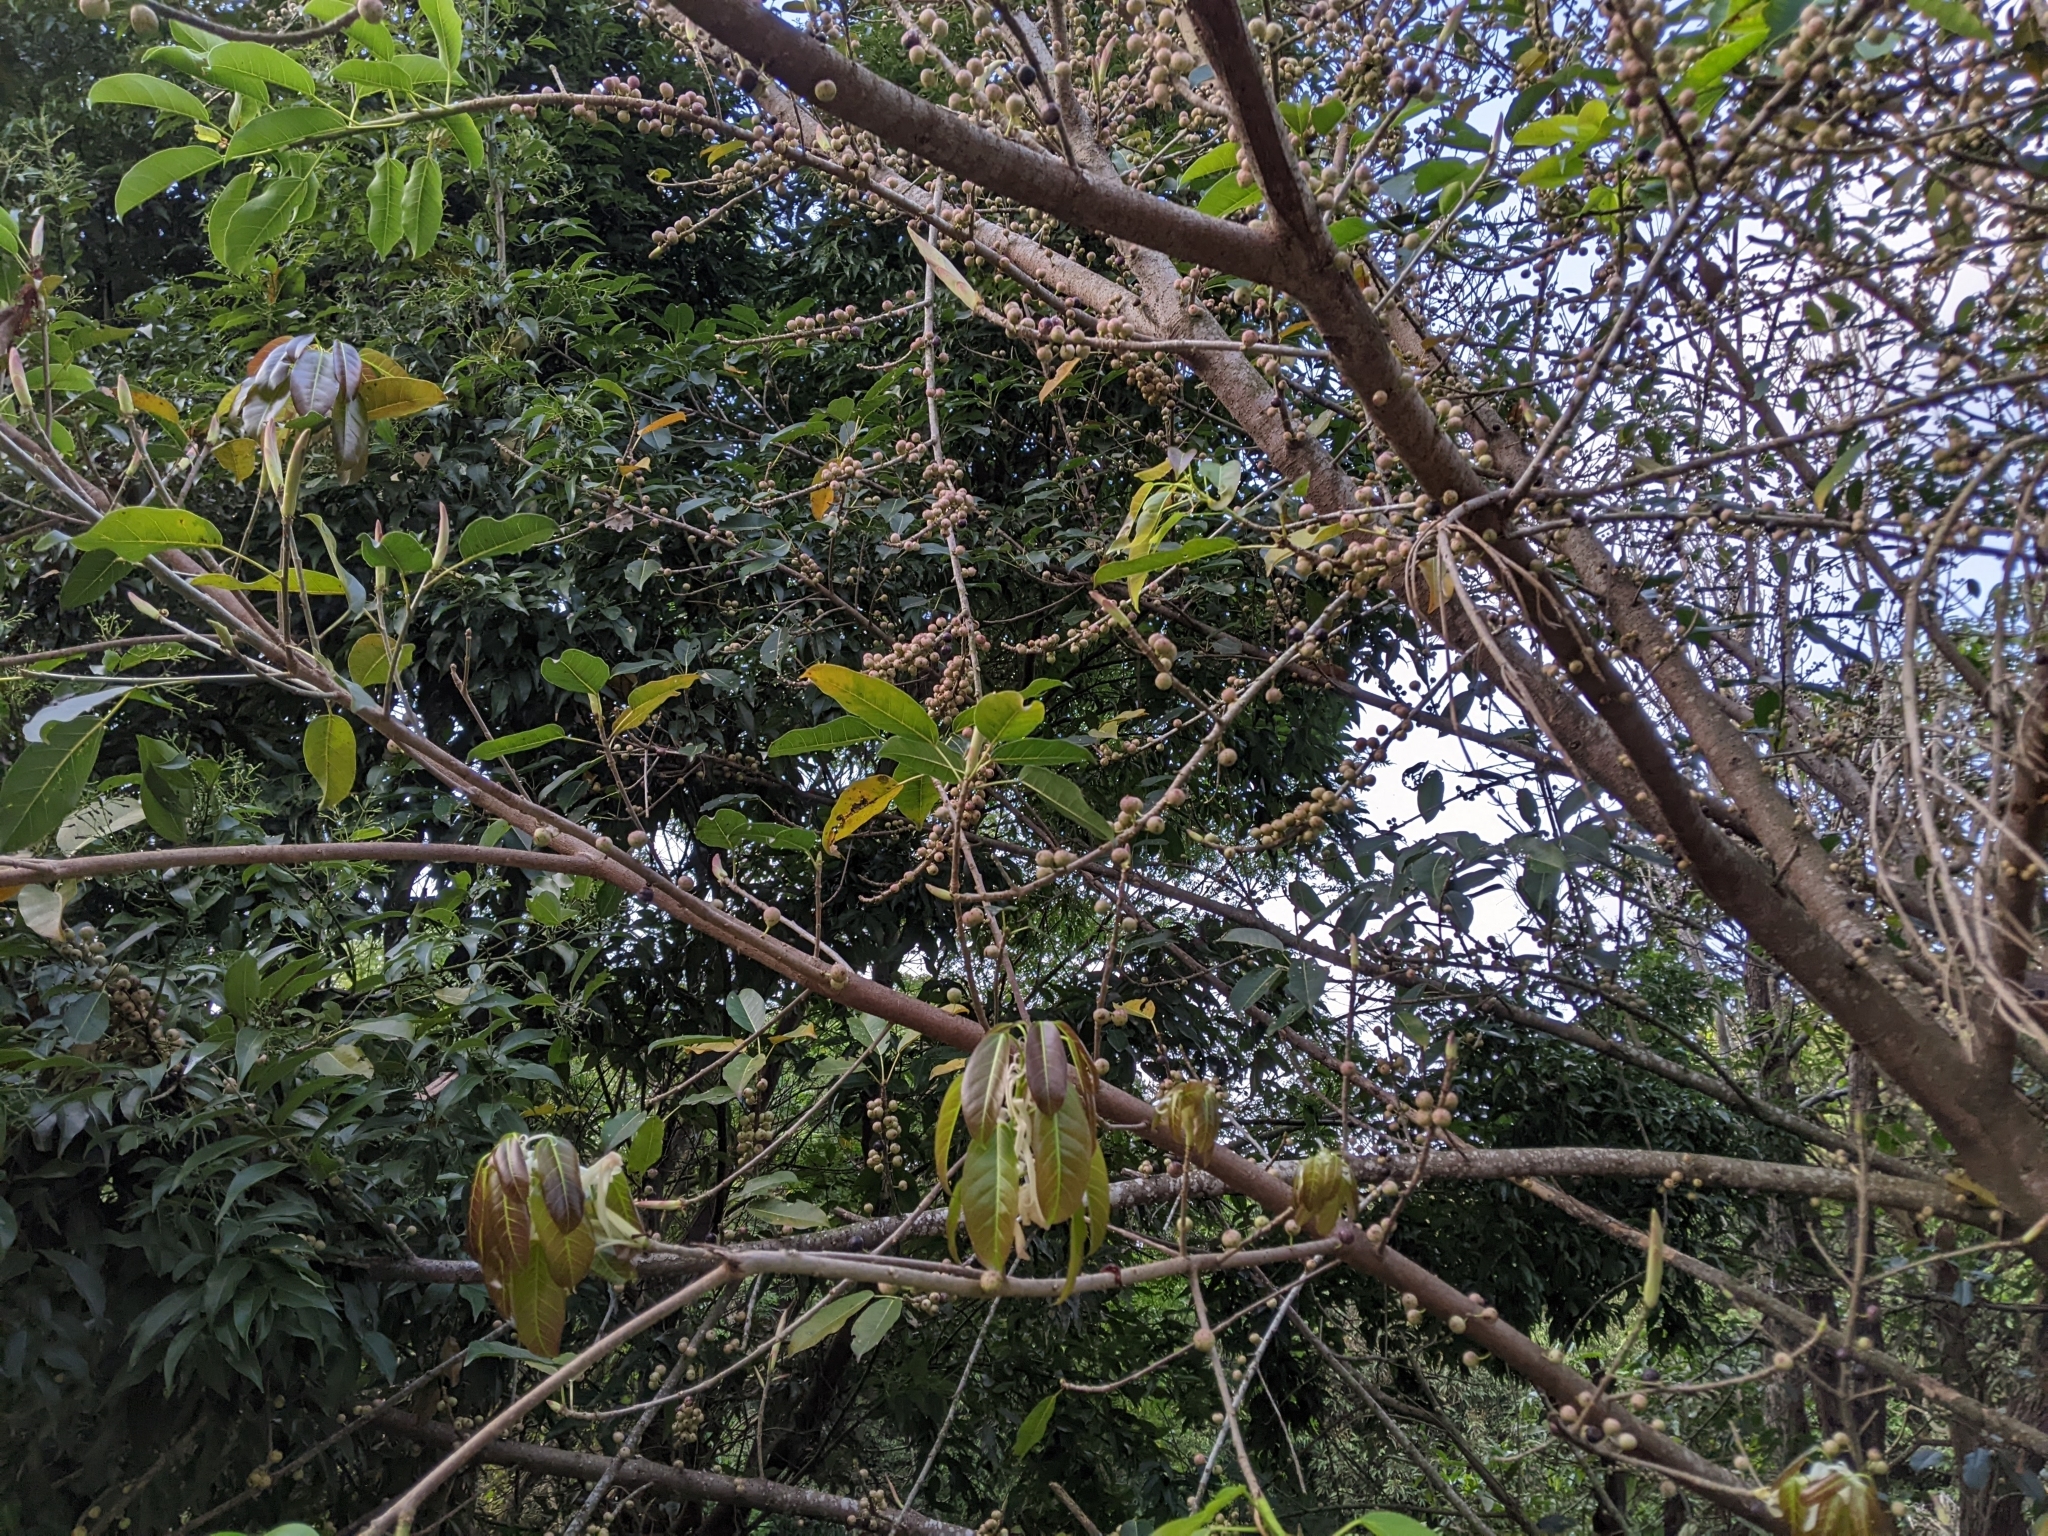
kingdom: Plantae
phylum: Tracheophyta
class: Magnoliopsida
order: Rosales
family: Moraceae
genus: Ficus
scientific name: Ficus subpisocarpa
